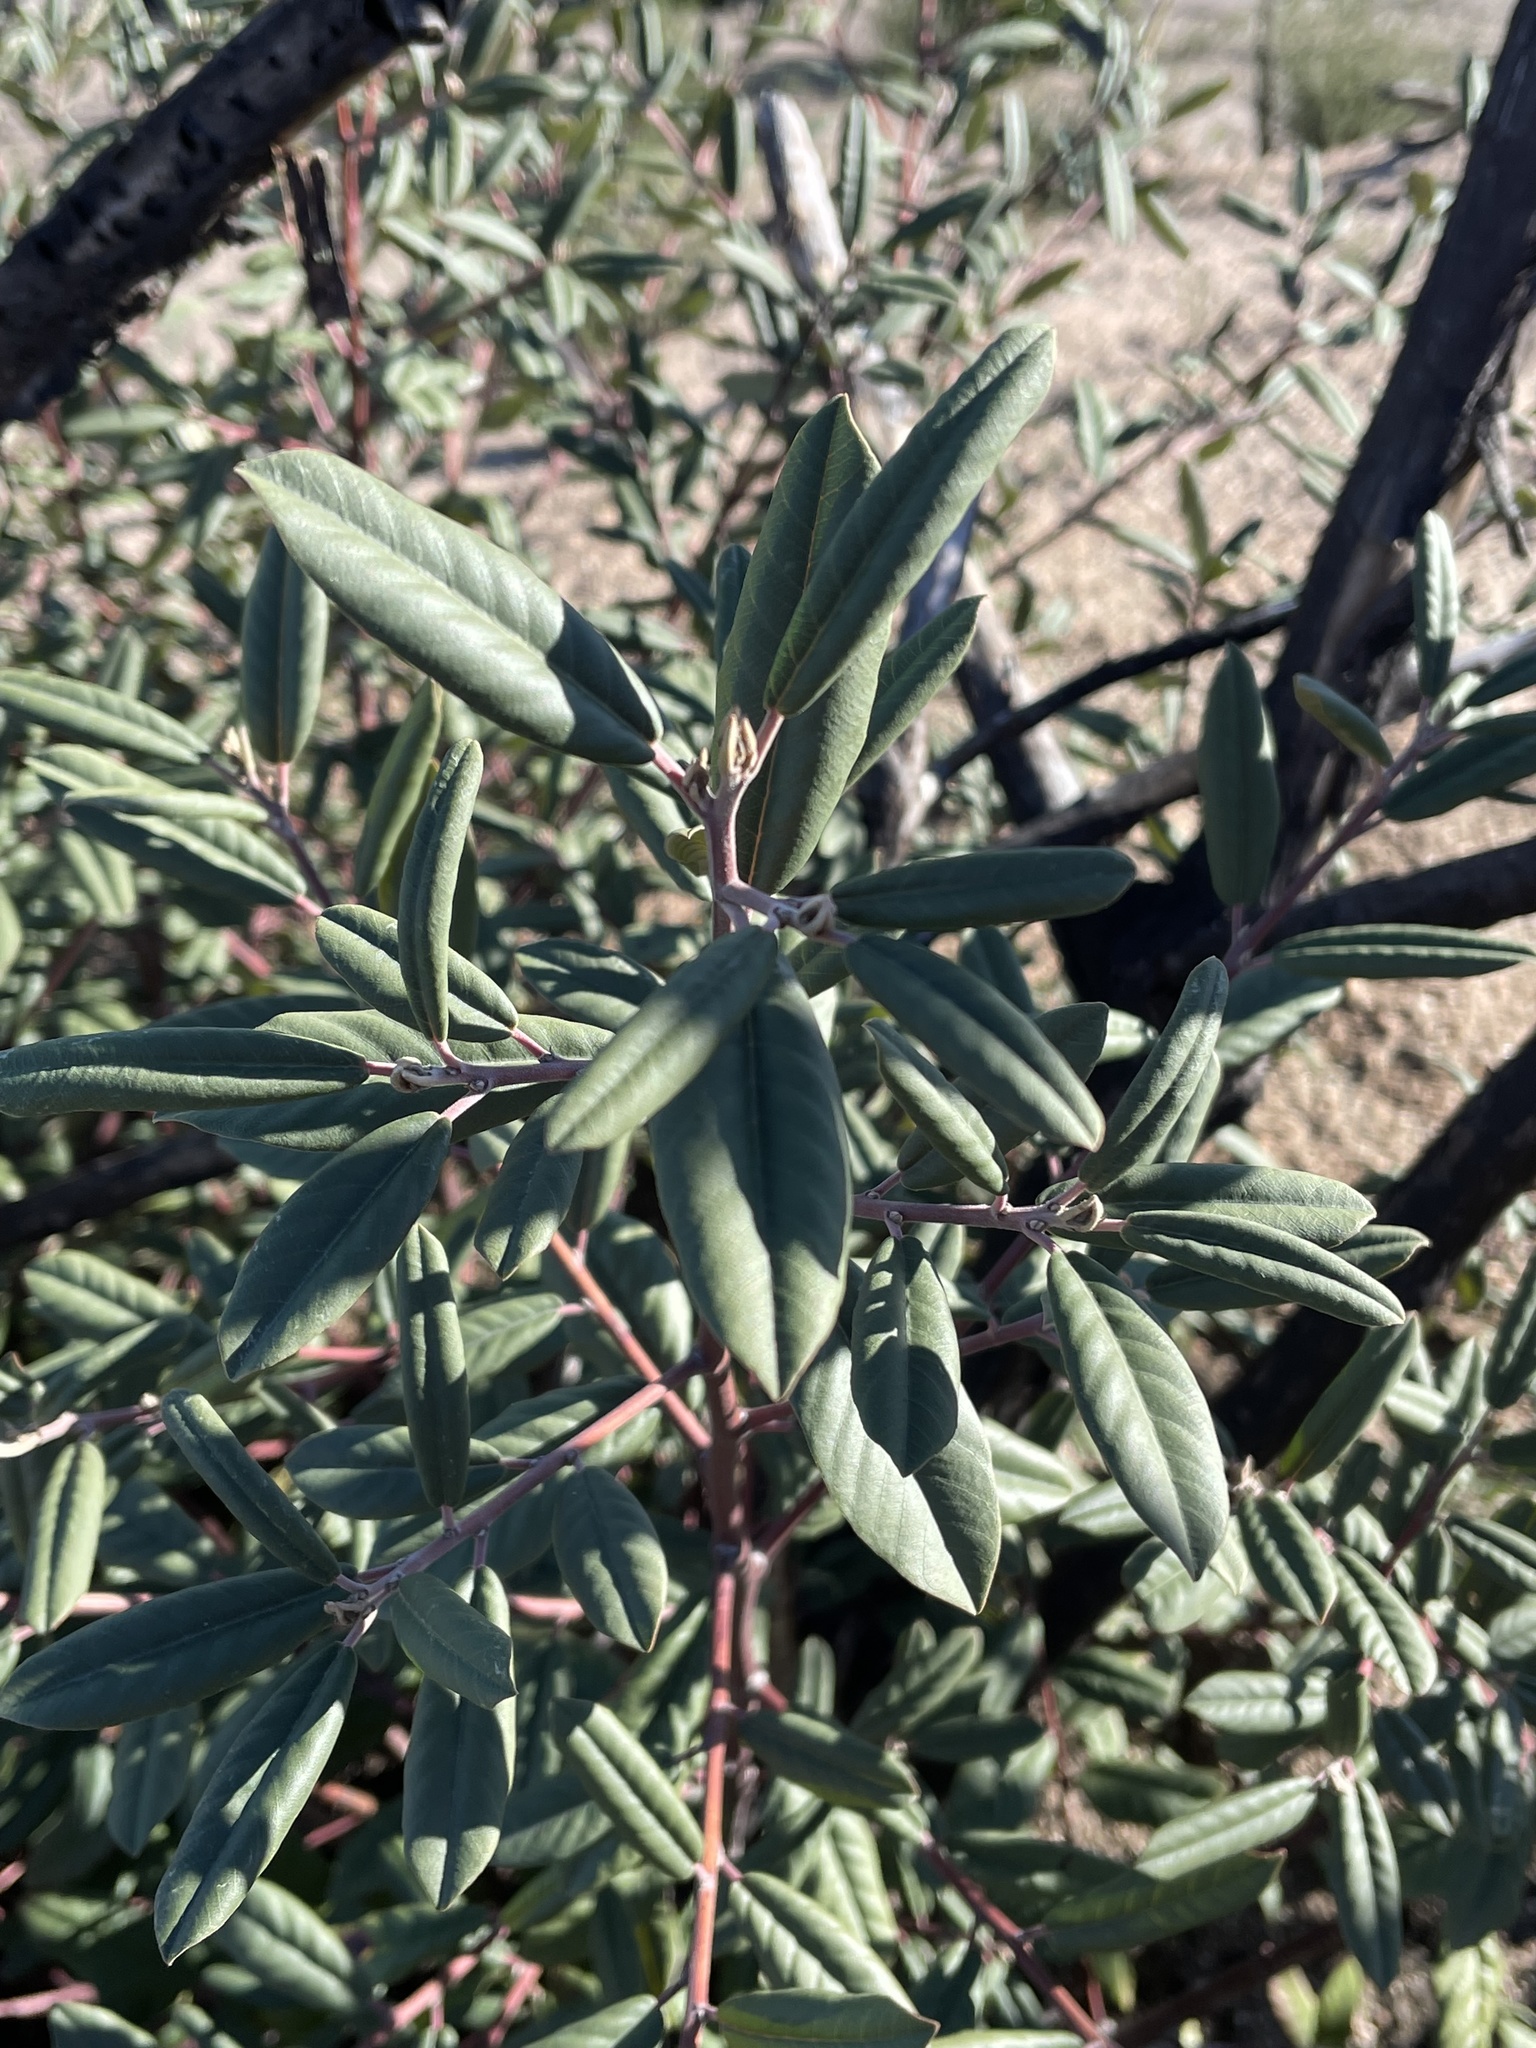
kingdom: Plantae
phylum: Tracheophyta
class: Magnoliopsida
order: Rosales
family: Rhamnaceae
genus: Frangula
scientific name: Frangula californica
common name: California buckthorn
